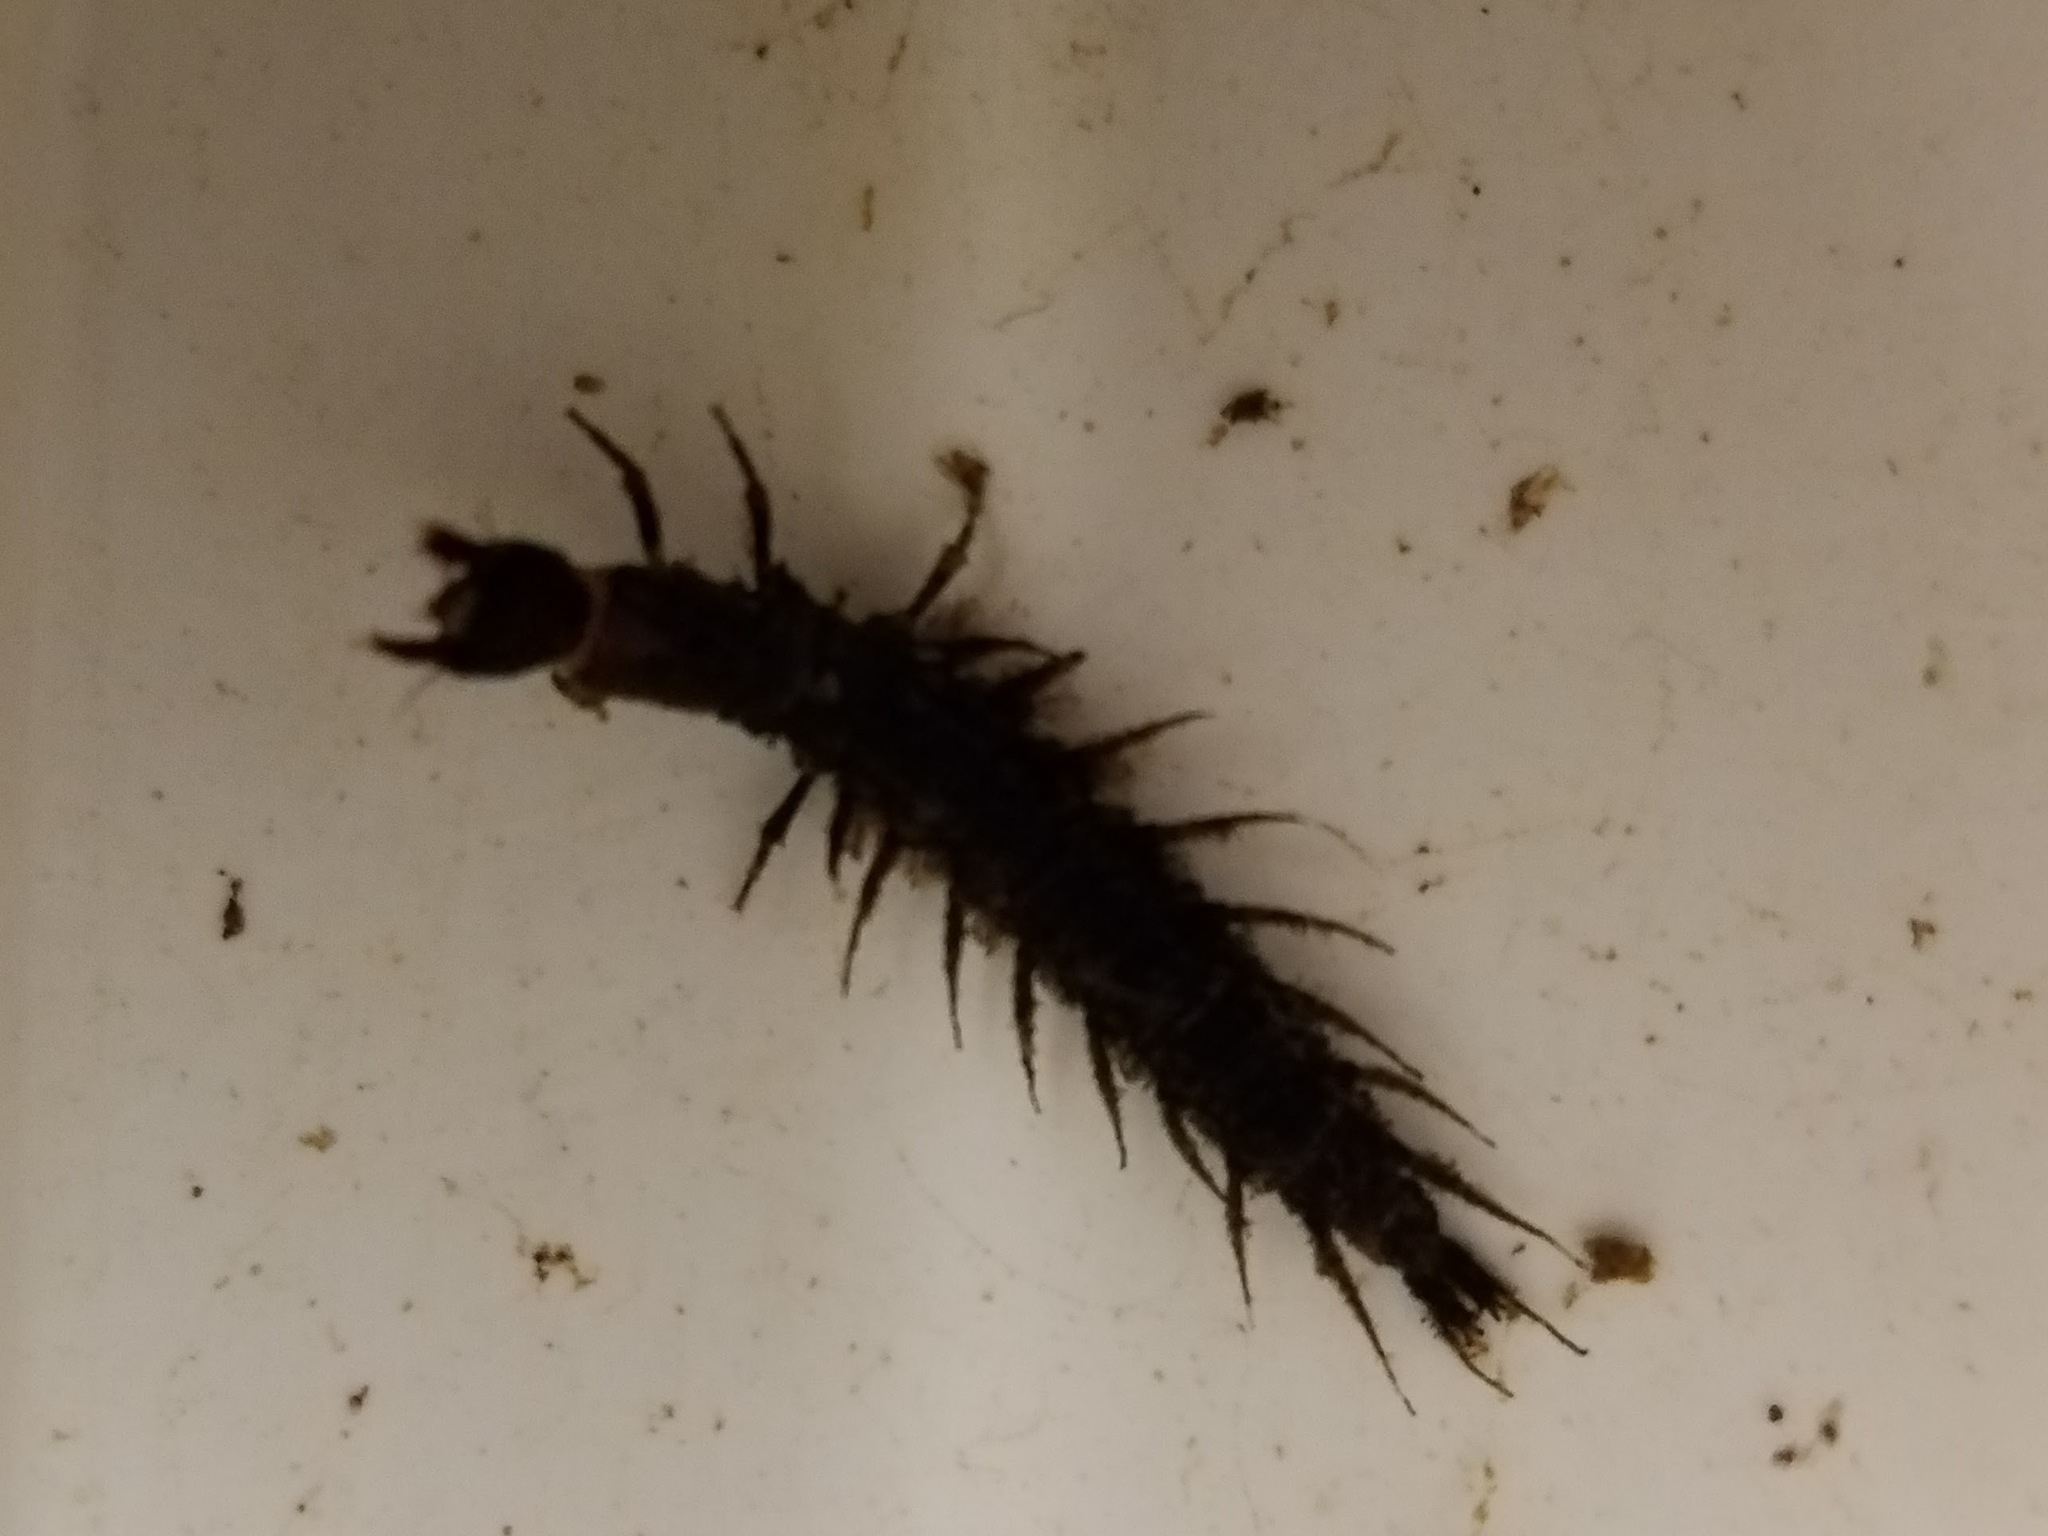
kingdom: Animalia
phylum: Arthropoda
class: Insecta
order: Megaloptera
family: Corydalidae
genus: Corydalus
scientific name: Corydalus cornutus
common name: Dobsonfly
